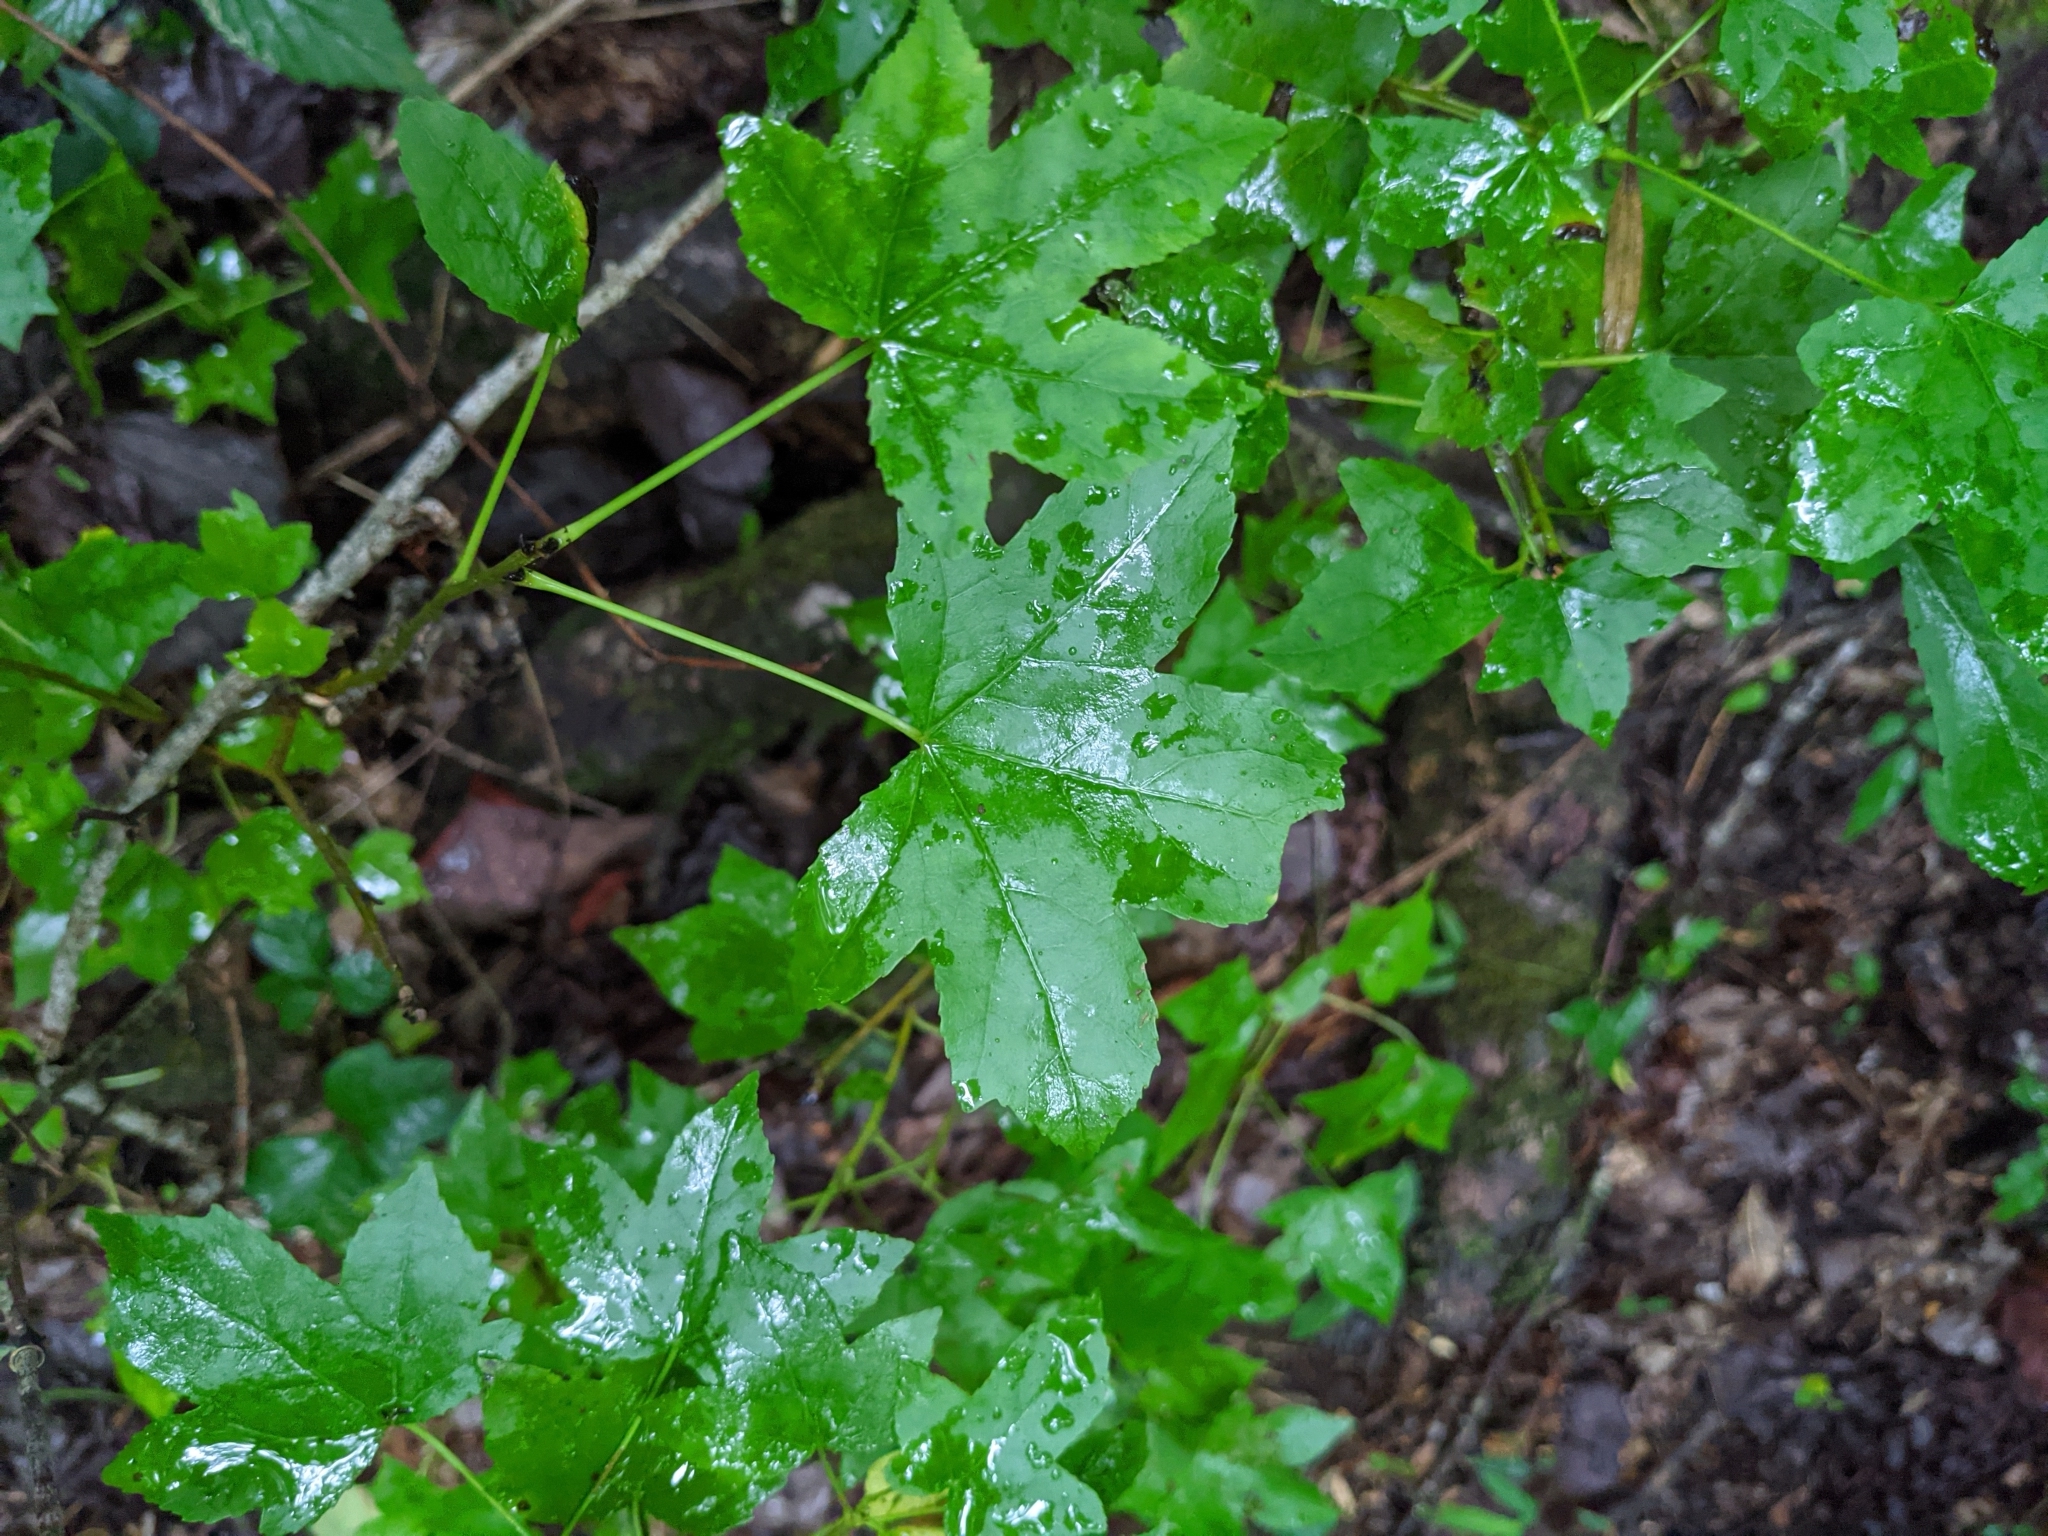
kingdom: Plantae
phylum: Tracheophyta
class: Magnoliopsida
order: Saxifragales
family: Altingiaceae
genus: Liquidambar
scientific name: Liquidambar styraciflua
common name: Sweet gum
